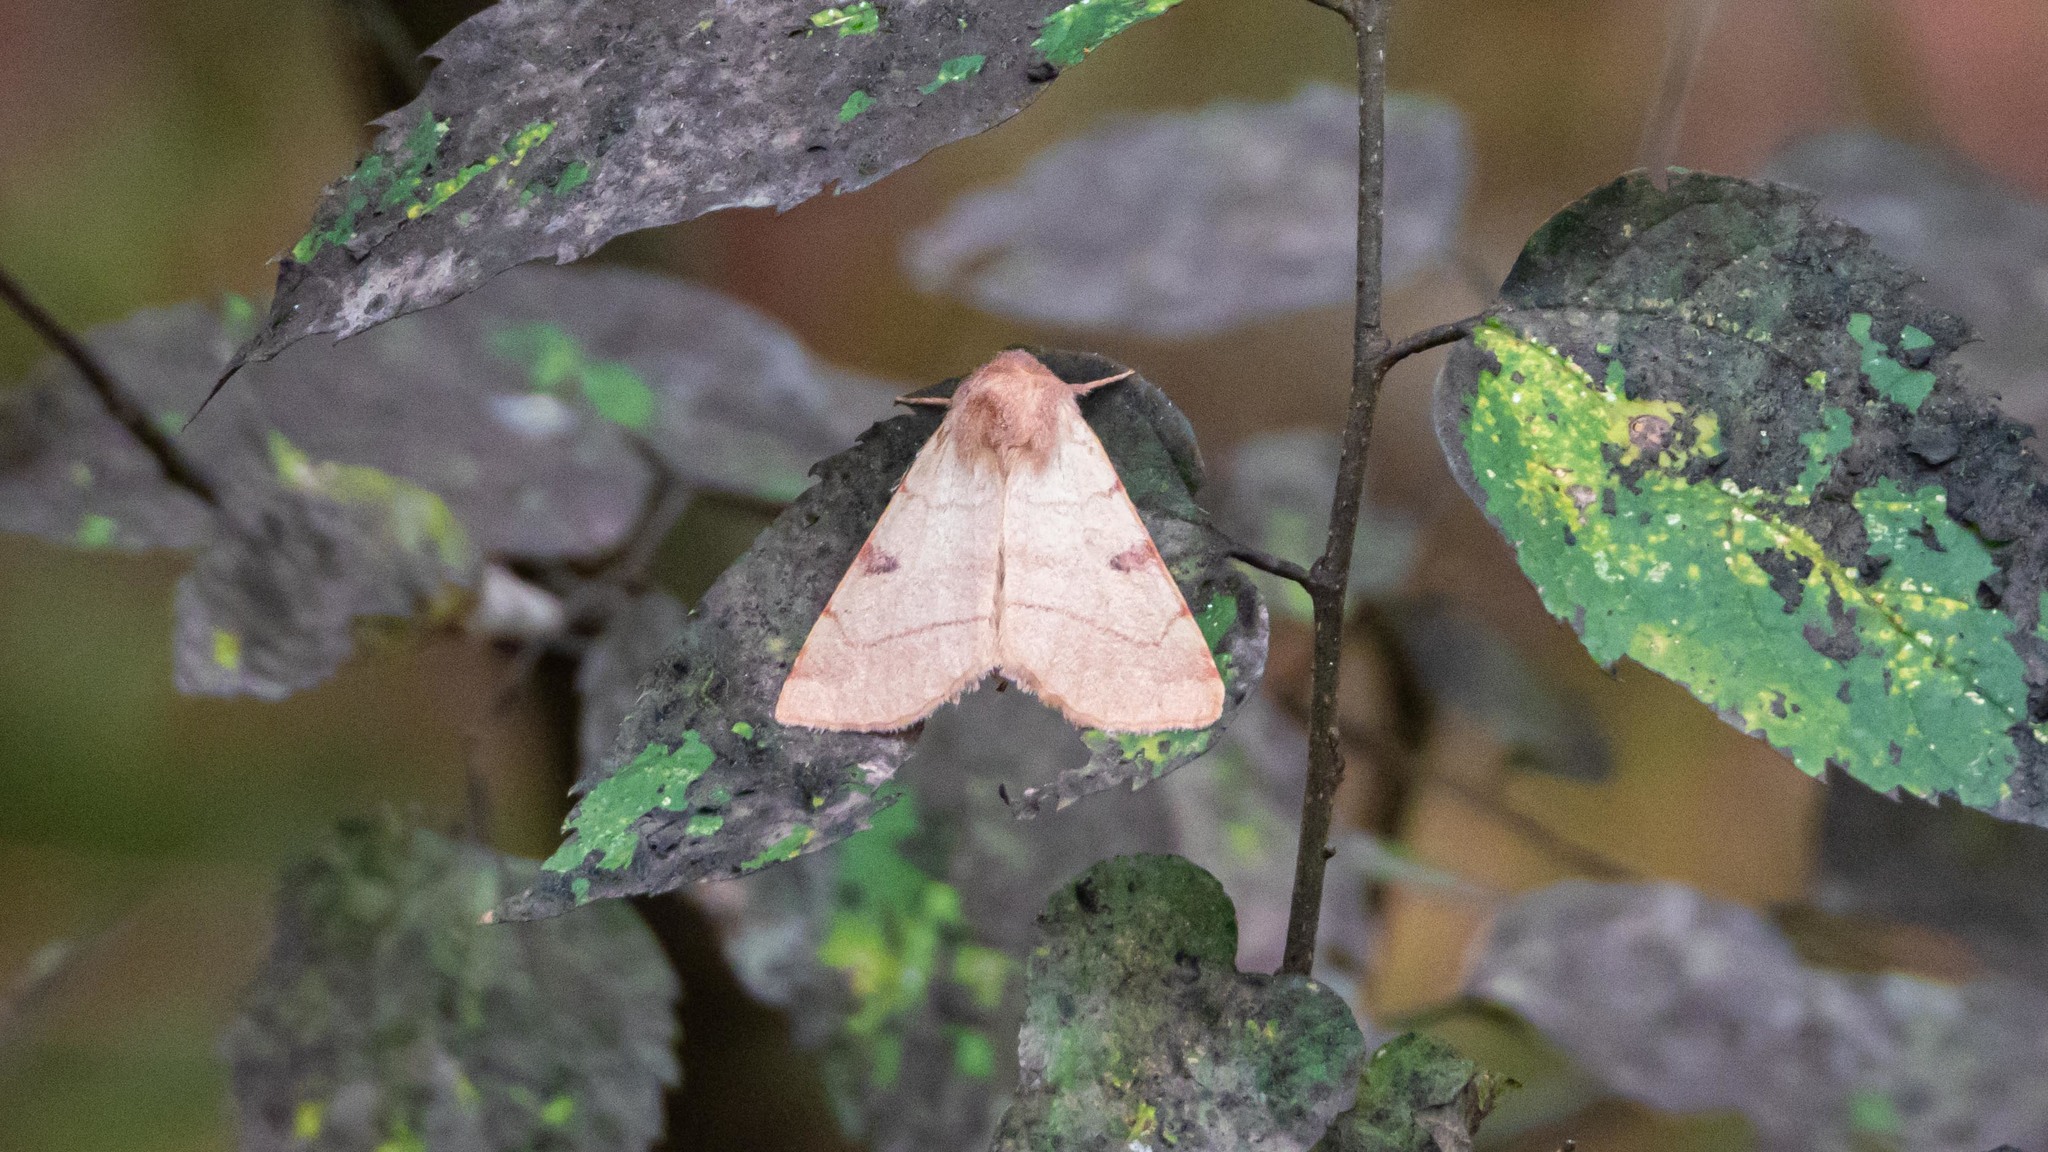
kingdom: Animalia
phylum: Arthropoda
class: Insecta
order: Lepidoptera
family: Noctuidae
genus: Choephora
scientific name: Choephora fungorum
